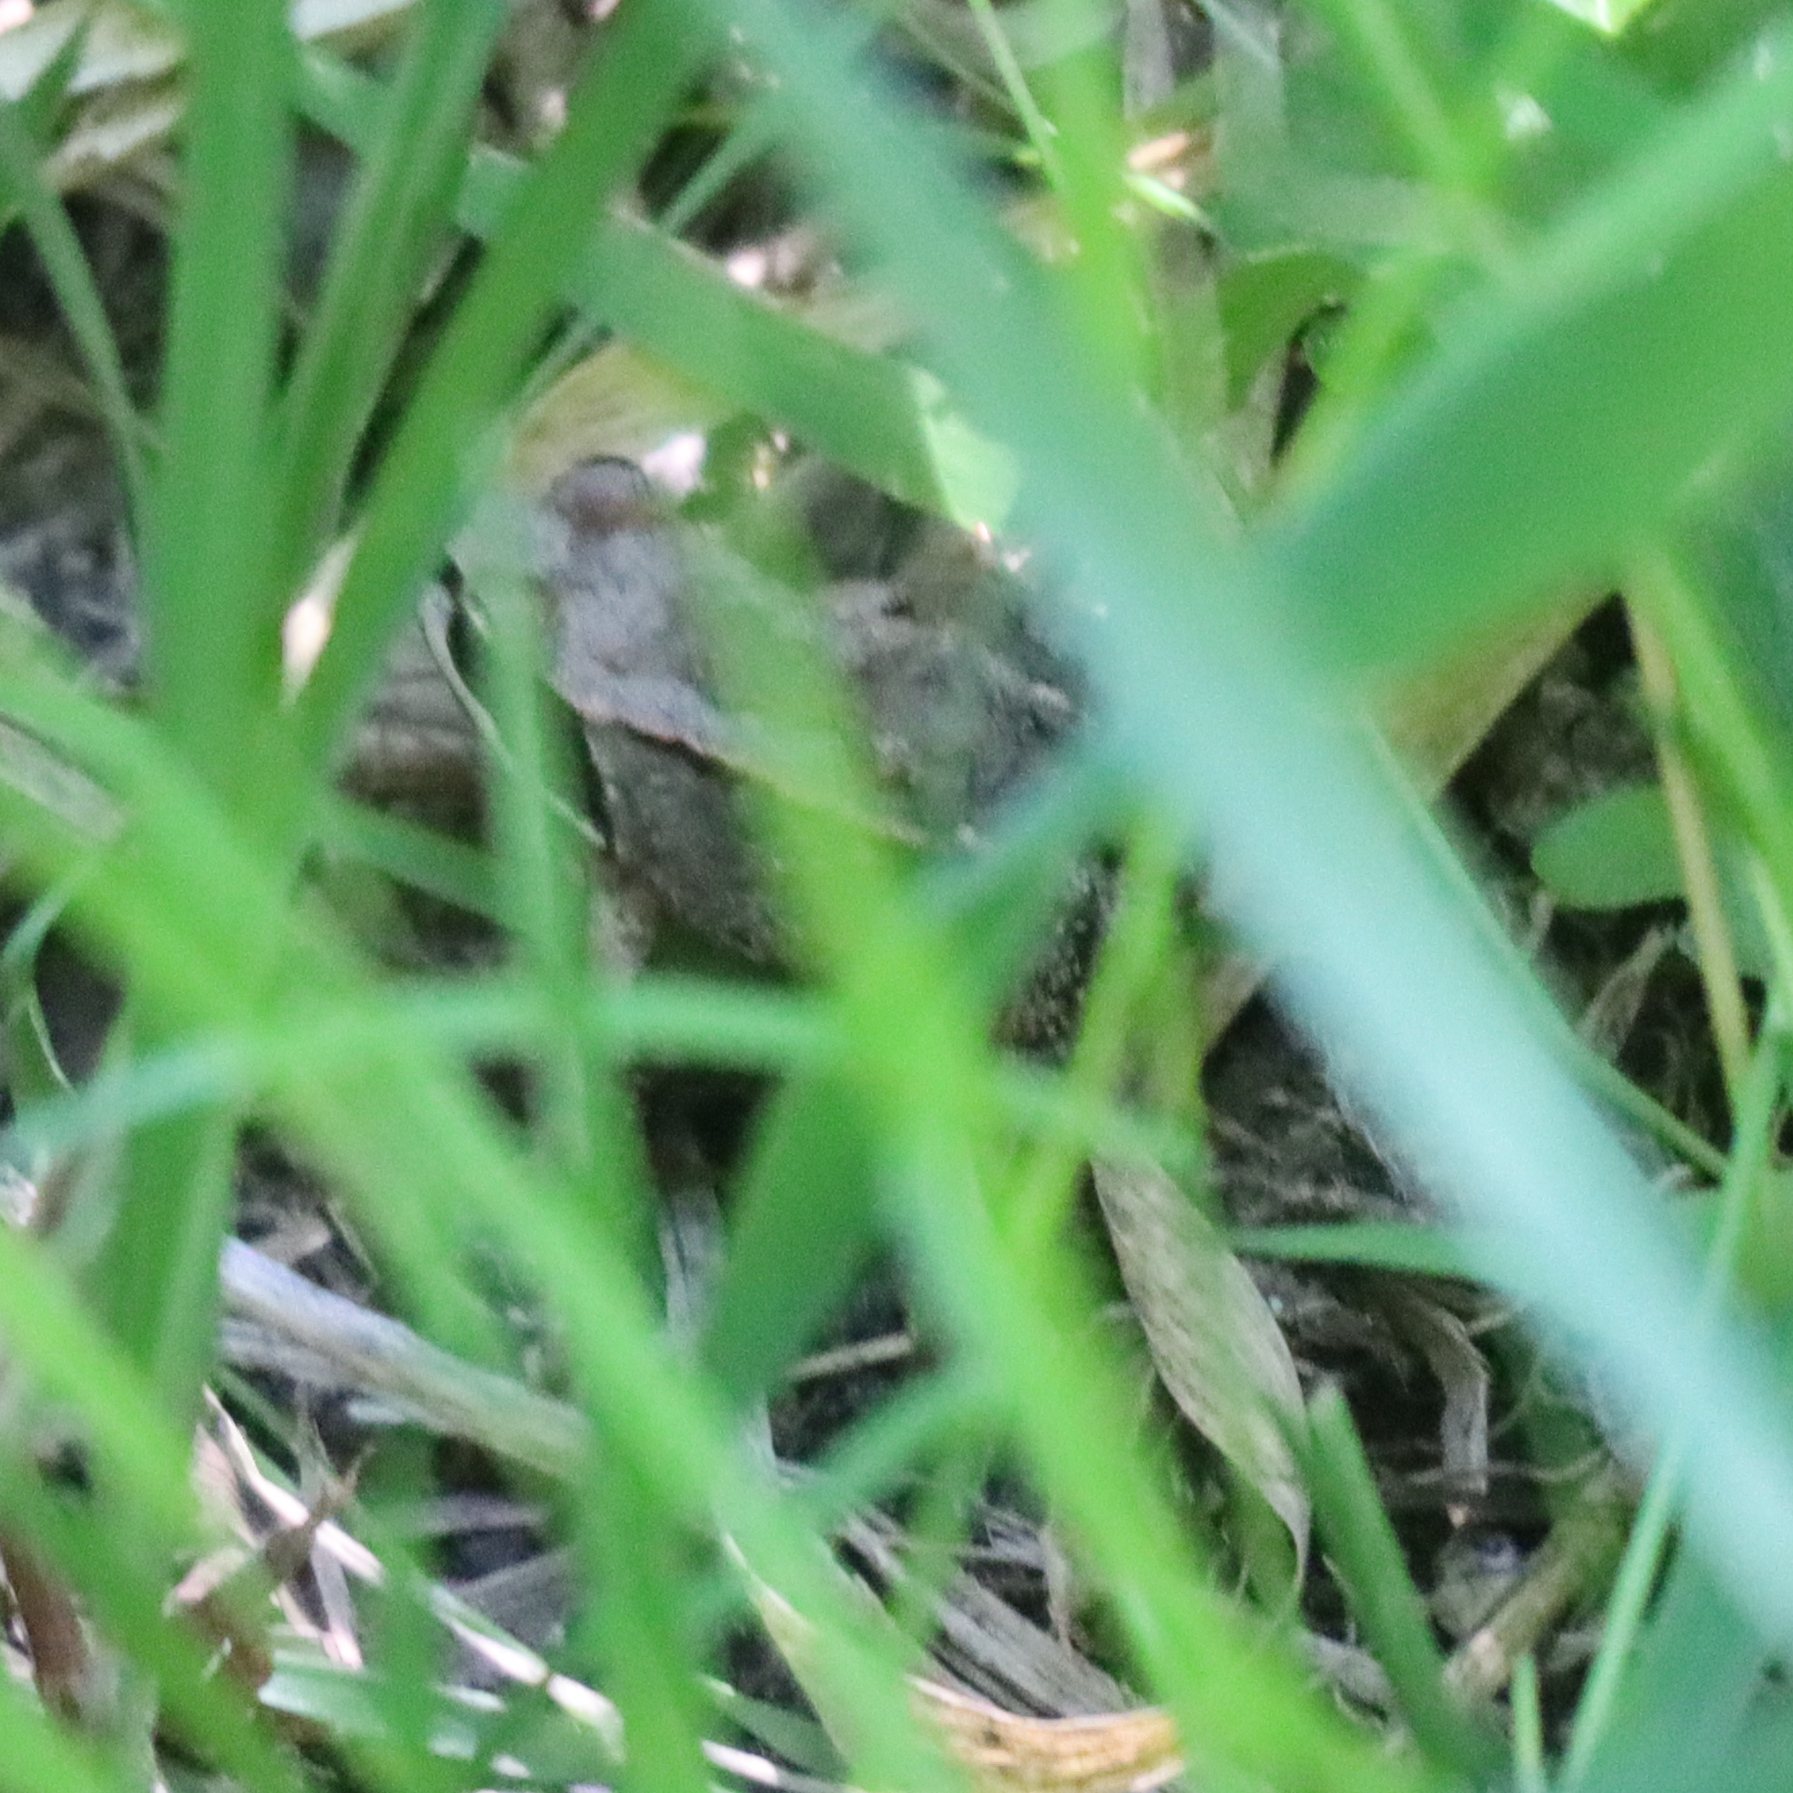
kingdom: Animalia
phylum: Chordata
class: Amphibia
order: Anura
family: Ranidae
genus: Lithobates
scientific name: Lithobates sylvaticus
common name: Wood frog
